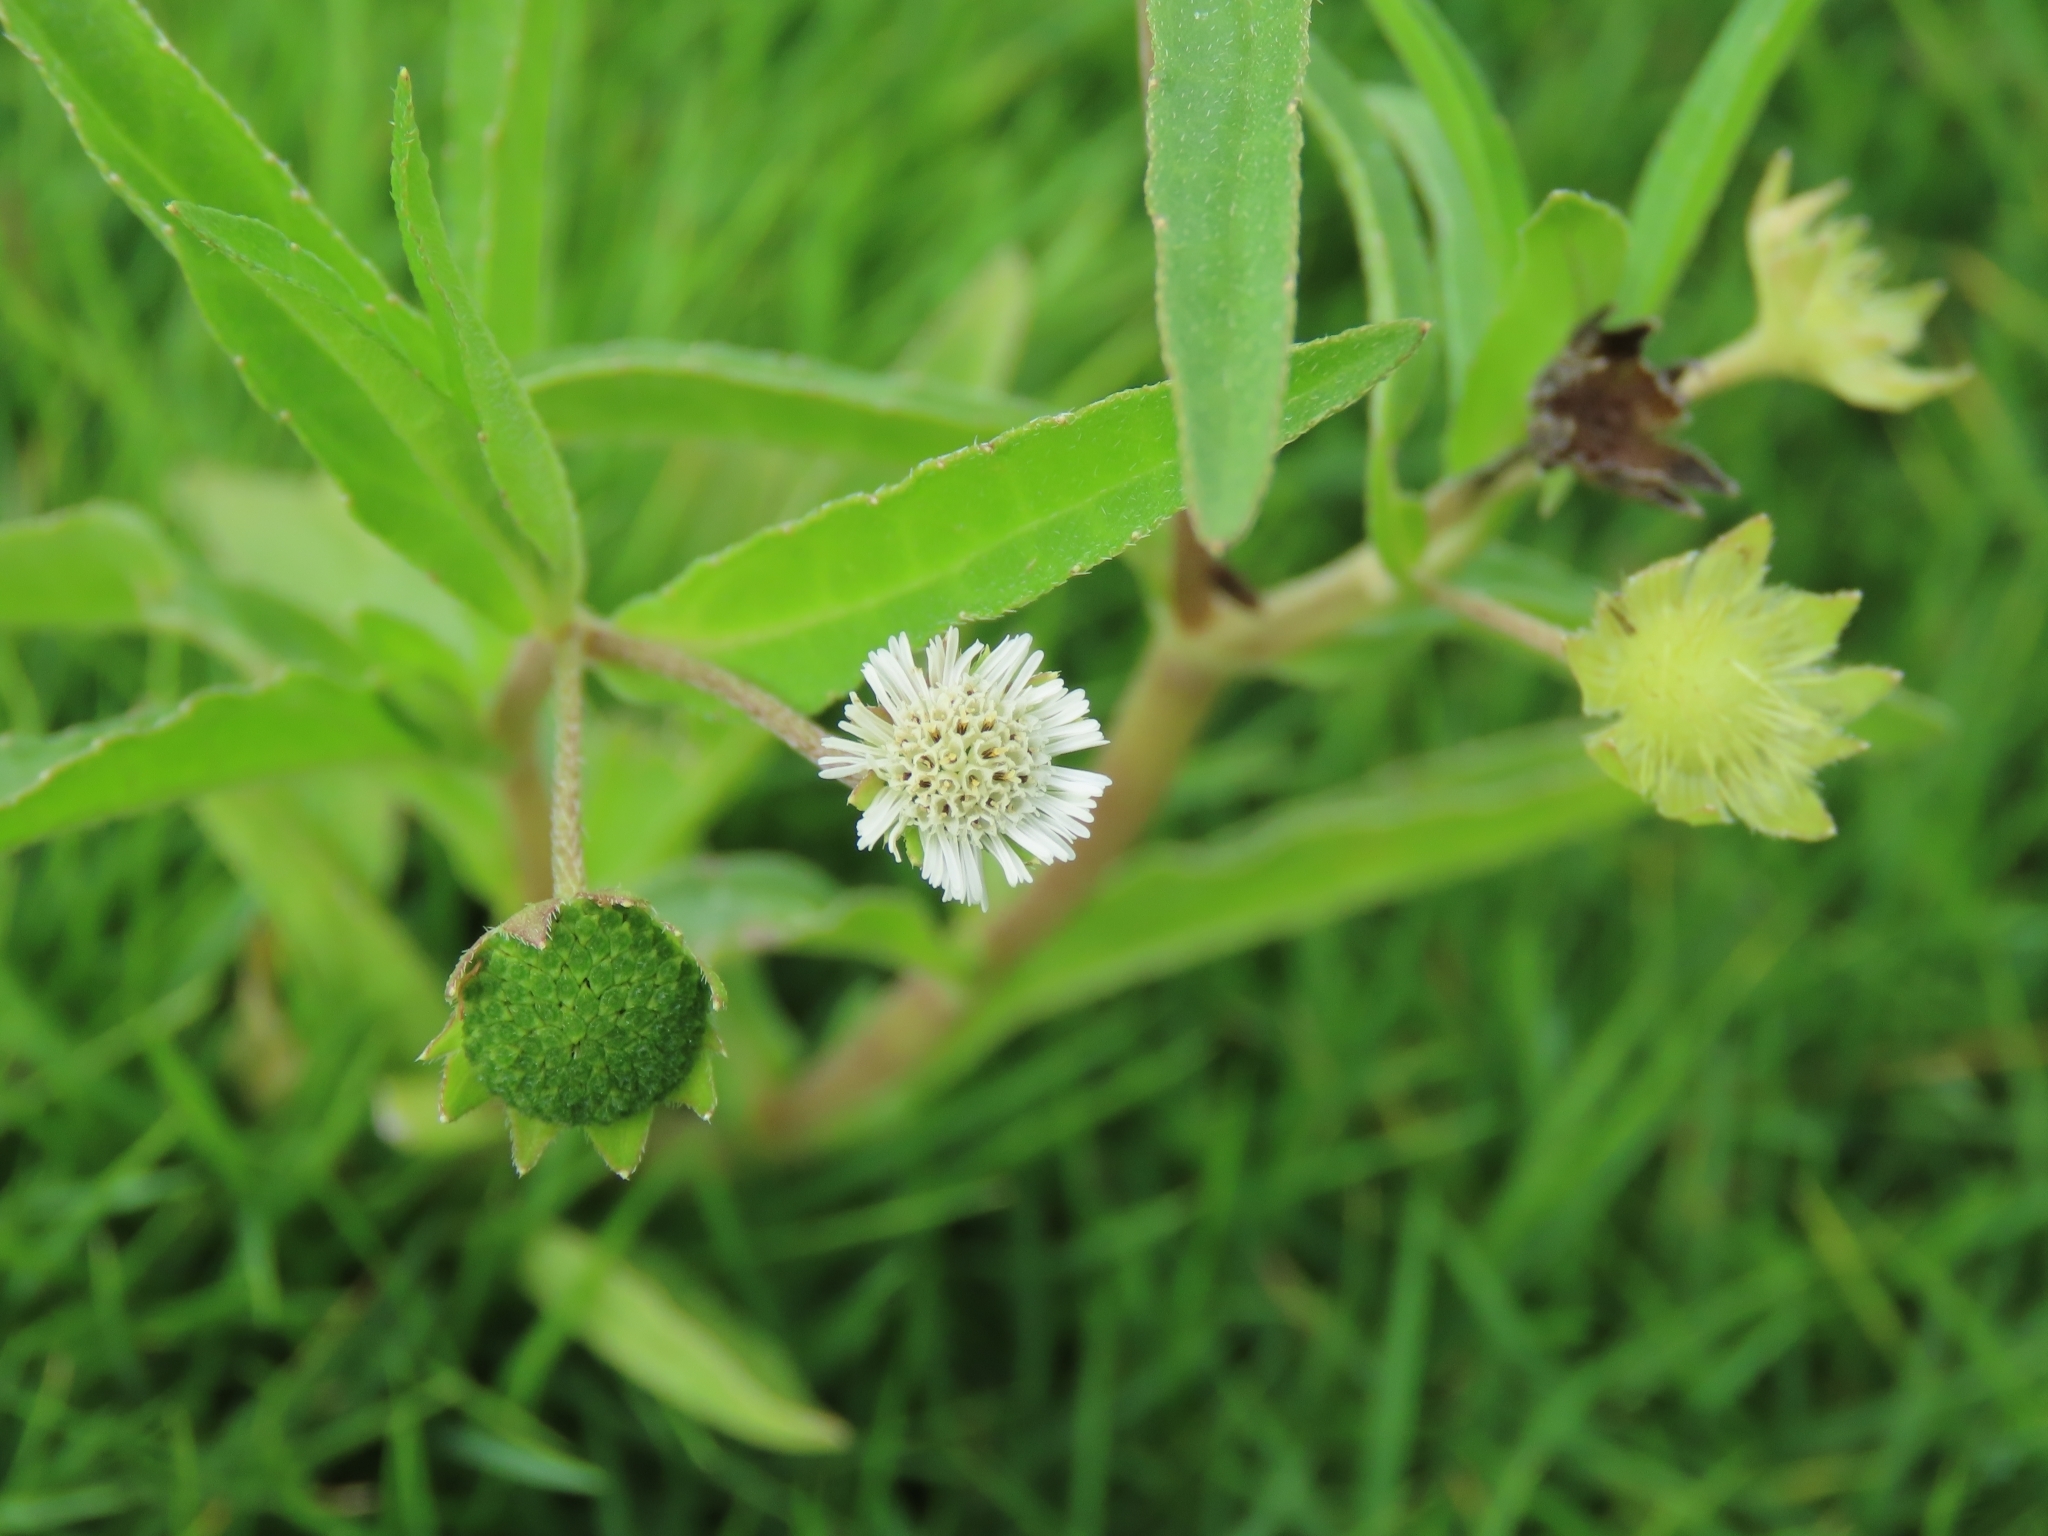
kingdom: Plantae
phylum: Tracheophyta
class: Magnoliopsida
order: Asterales
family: Asteraceae
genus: Eclipta
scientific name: Eclipta prostrata
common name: False daisy
